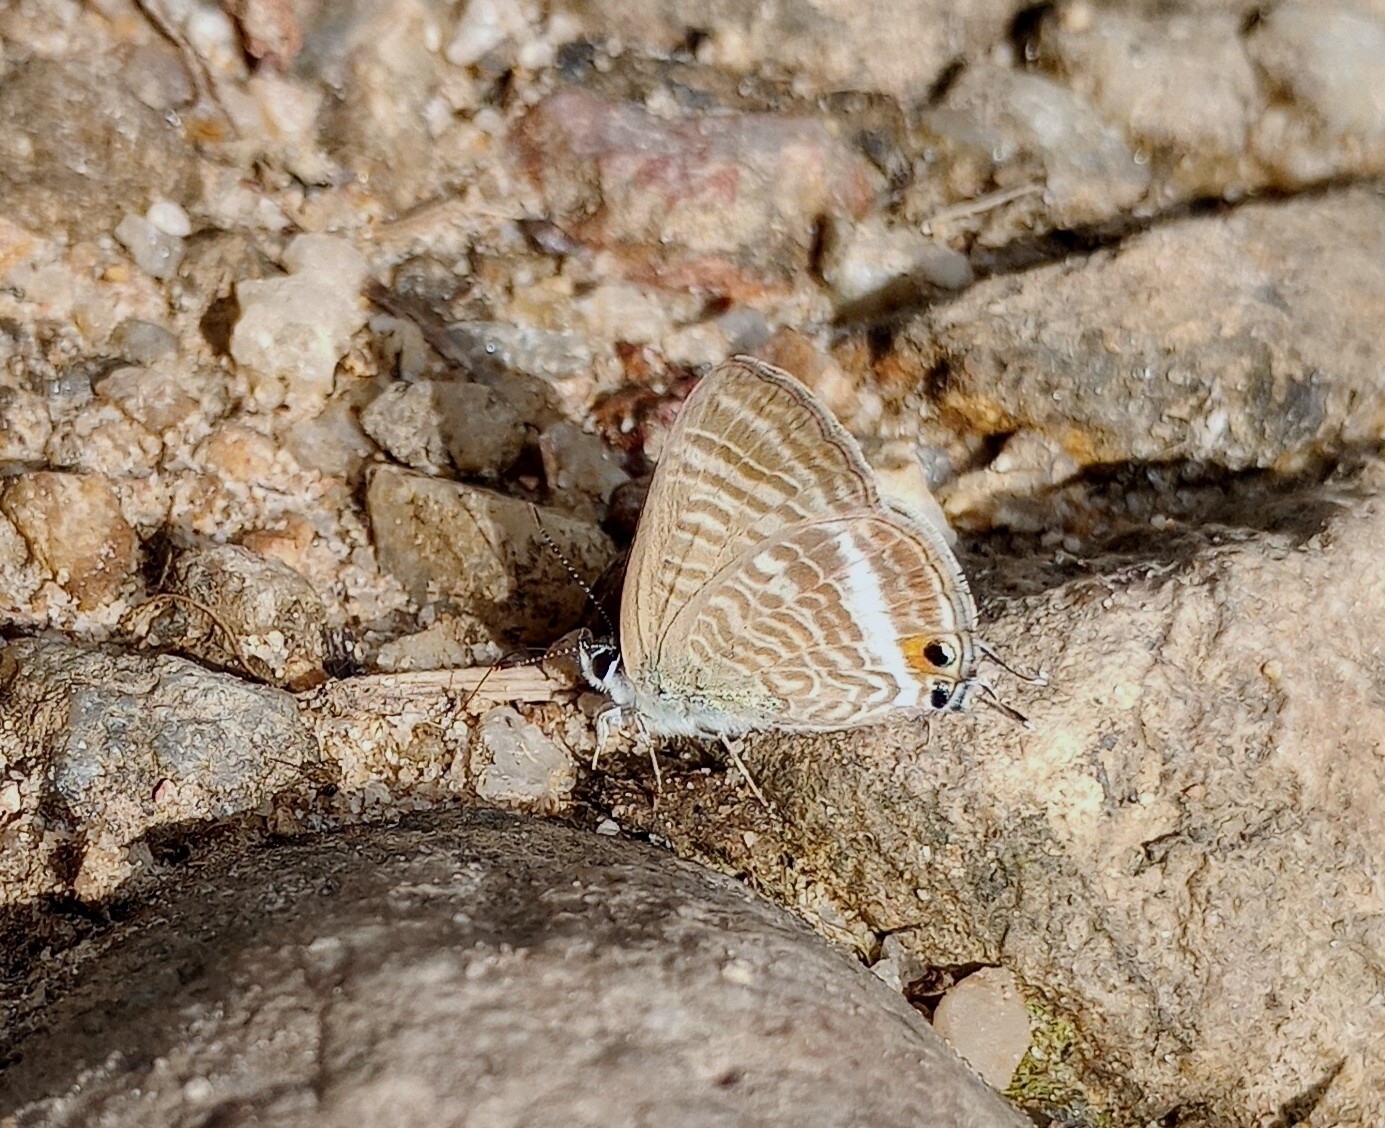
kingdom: Animalia
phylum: Arthropoda
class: Insecta
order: Lepidoptera
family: Lycaenidae
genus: Lampides
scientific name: Lampides boeticus
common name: Long-tailed blue
